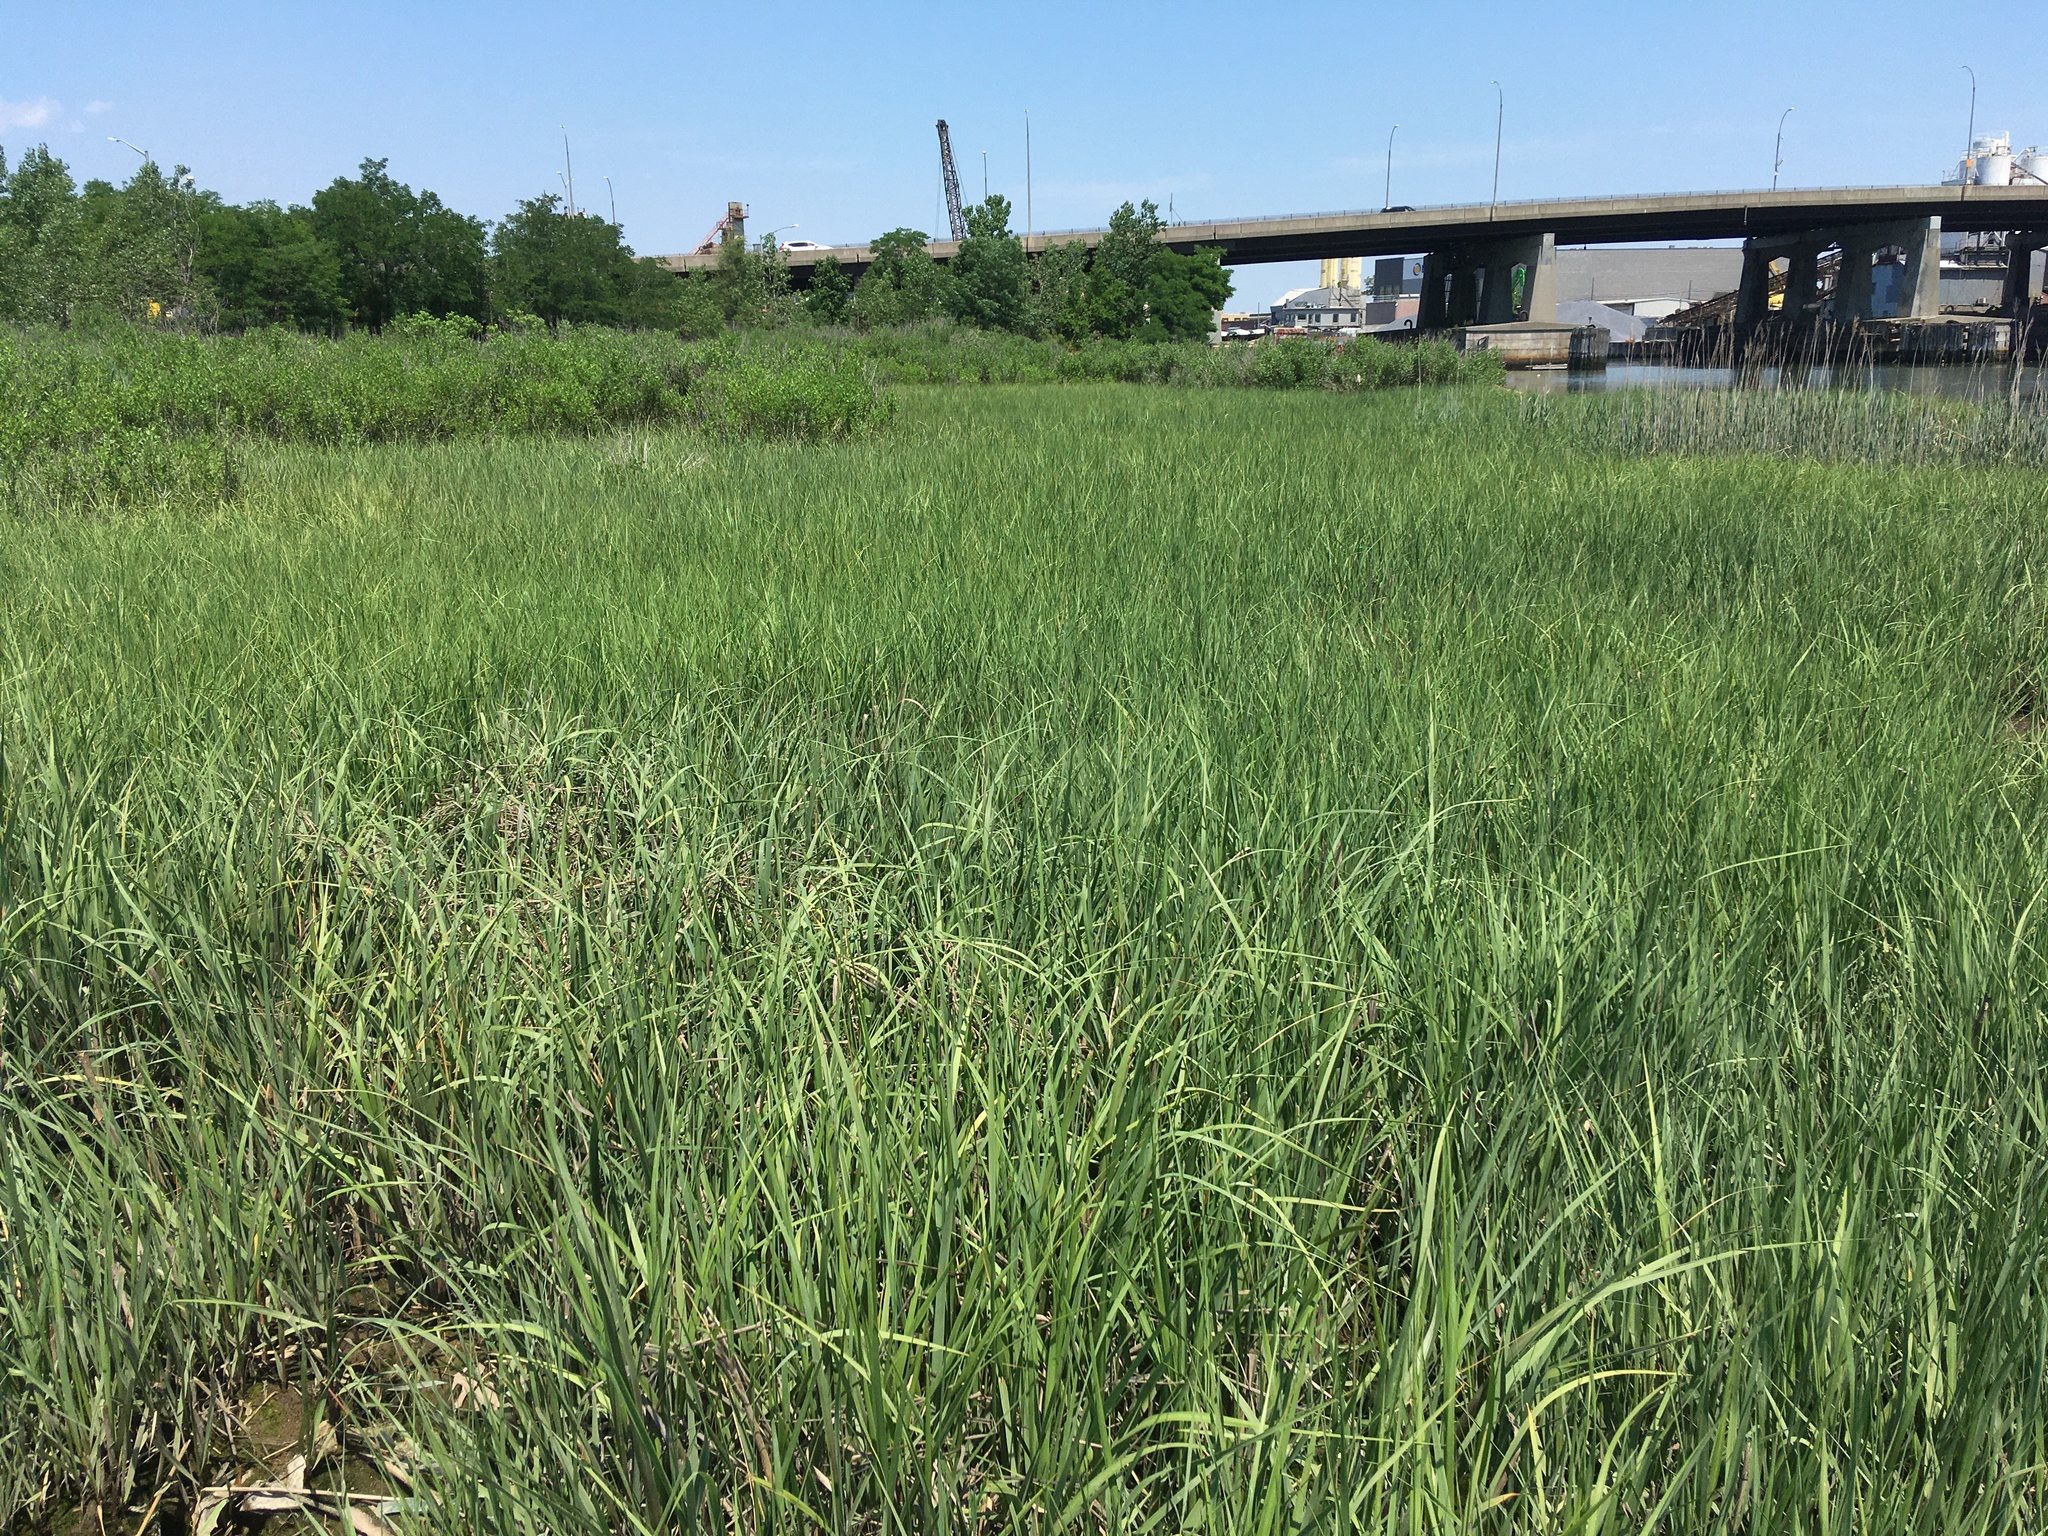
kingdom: Plantae
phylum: Tracheophyta
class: Liliopsida
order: Poales
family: Poaceae
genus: Sporobolus
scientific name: Sporobolus alterniflorus
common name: Atlantic cordgrass
